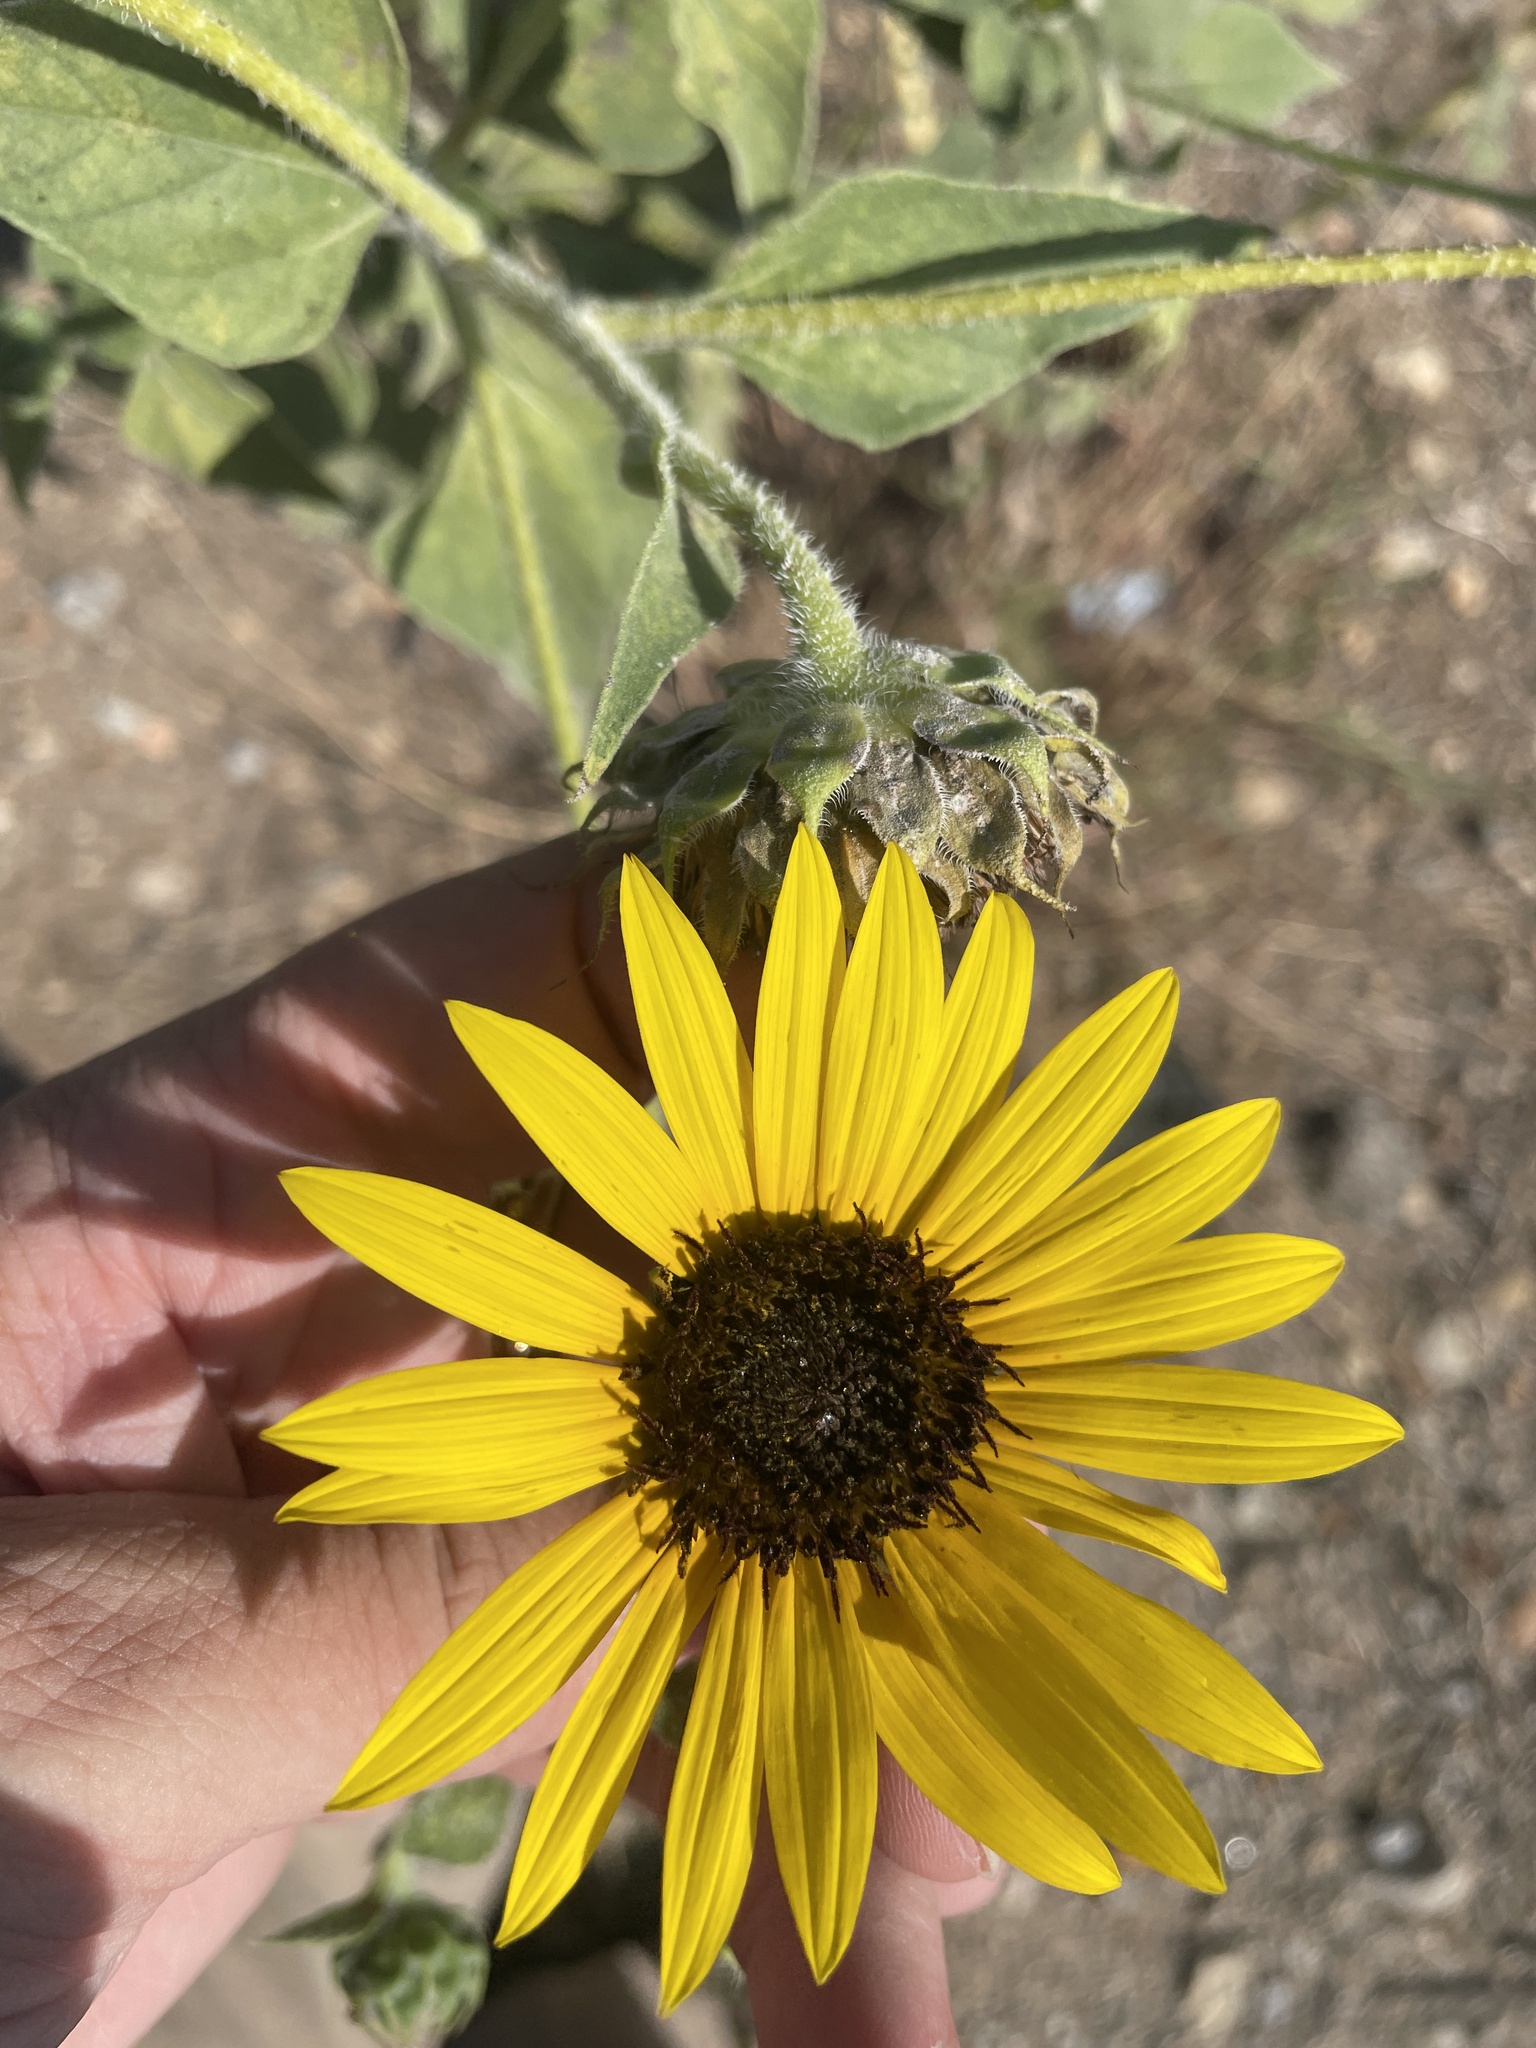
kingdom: Plantae
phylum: Tracheophyta
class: Magnoliopsida
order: Asterales
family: Asteraceae
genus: Helianthus
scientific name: Helianthus annuus
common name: Sunflower
